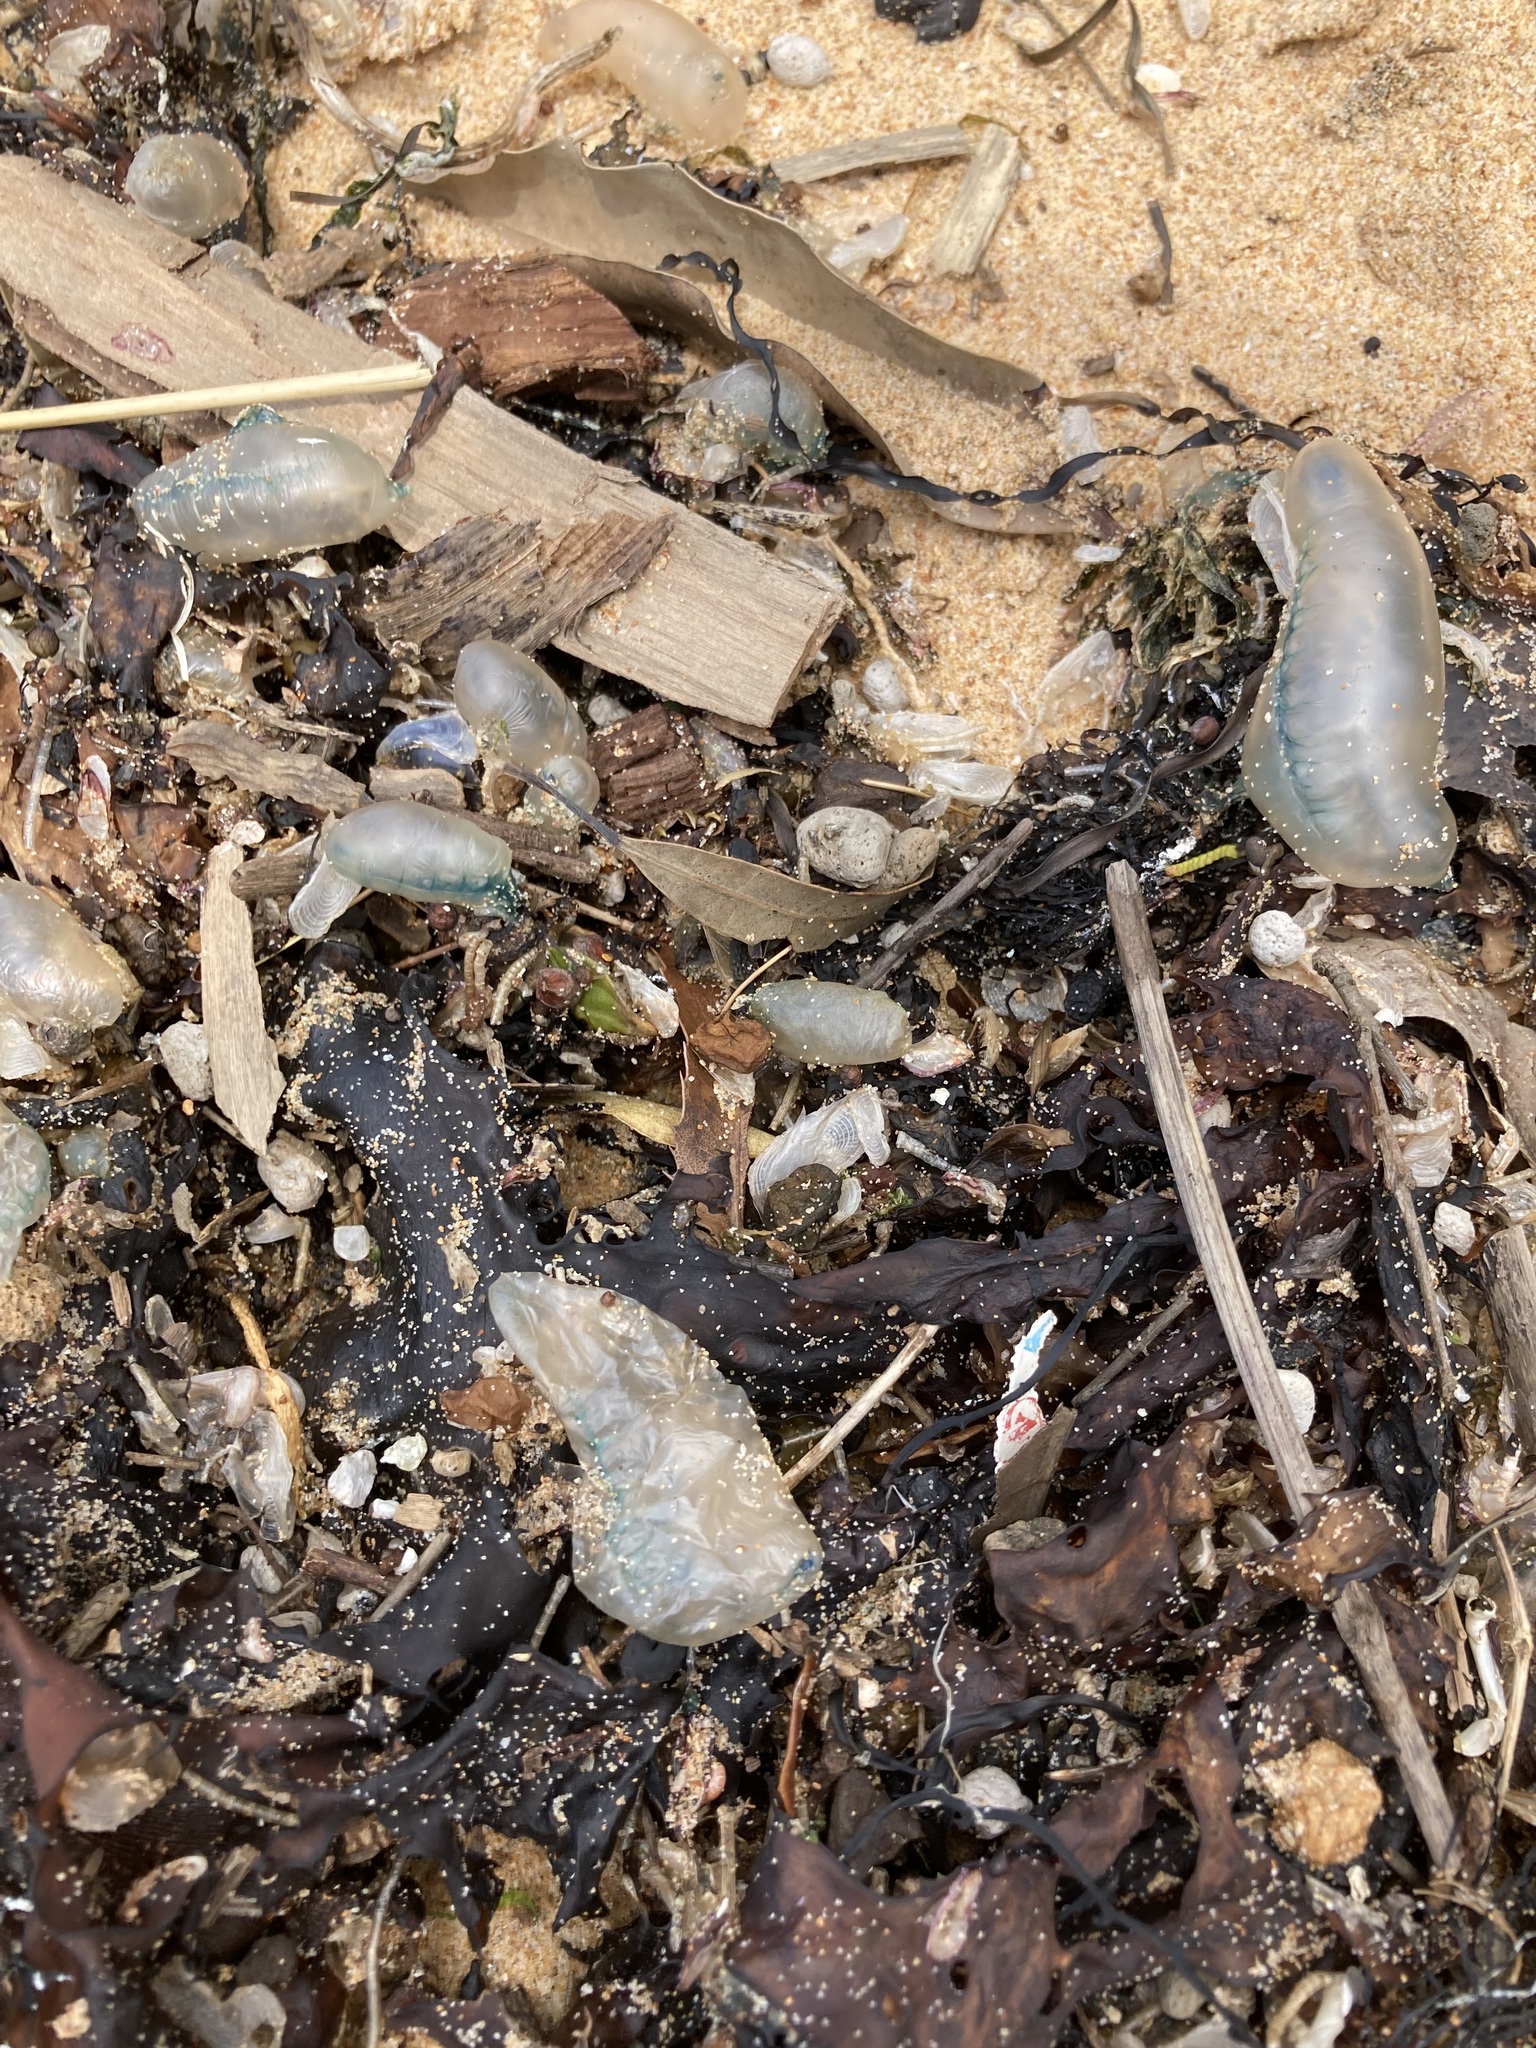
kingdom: Animalia
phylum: Cnidaria
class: Hydrozoa
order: Siphonophorae
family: Physaliidae
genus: Physalia
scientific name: Physalia physalis
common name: Portuguese man-of-war
